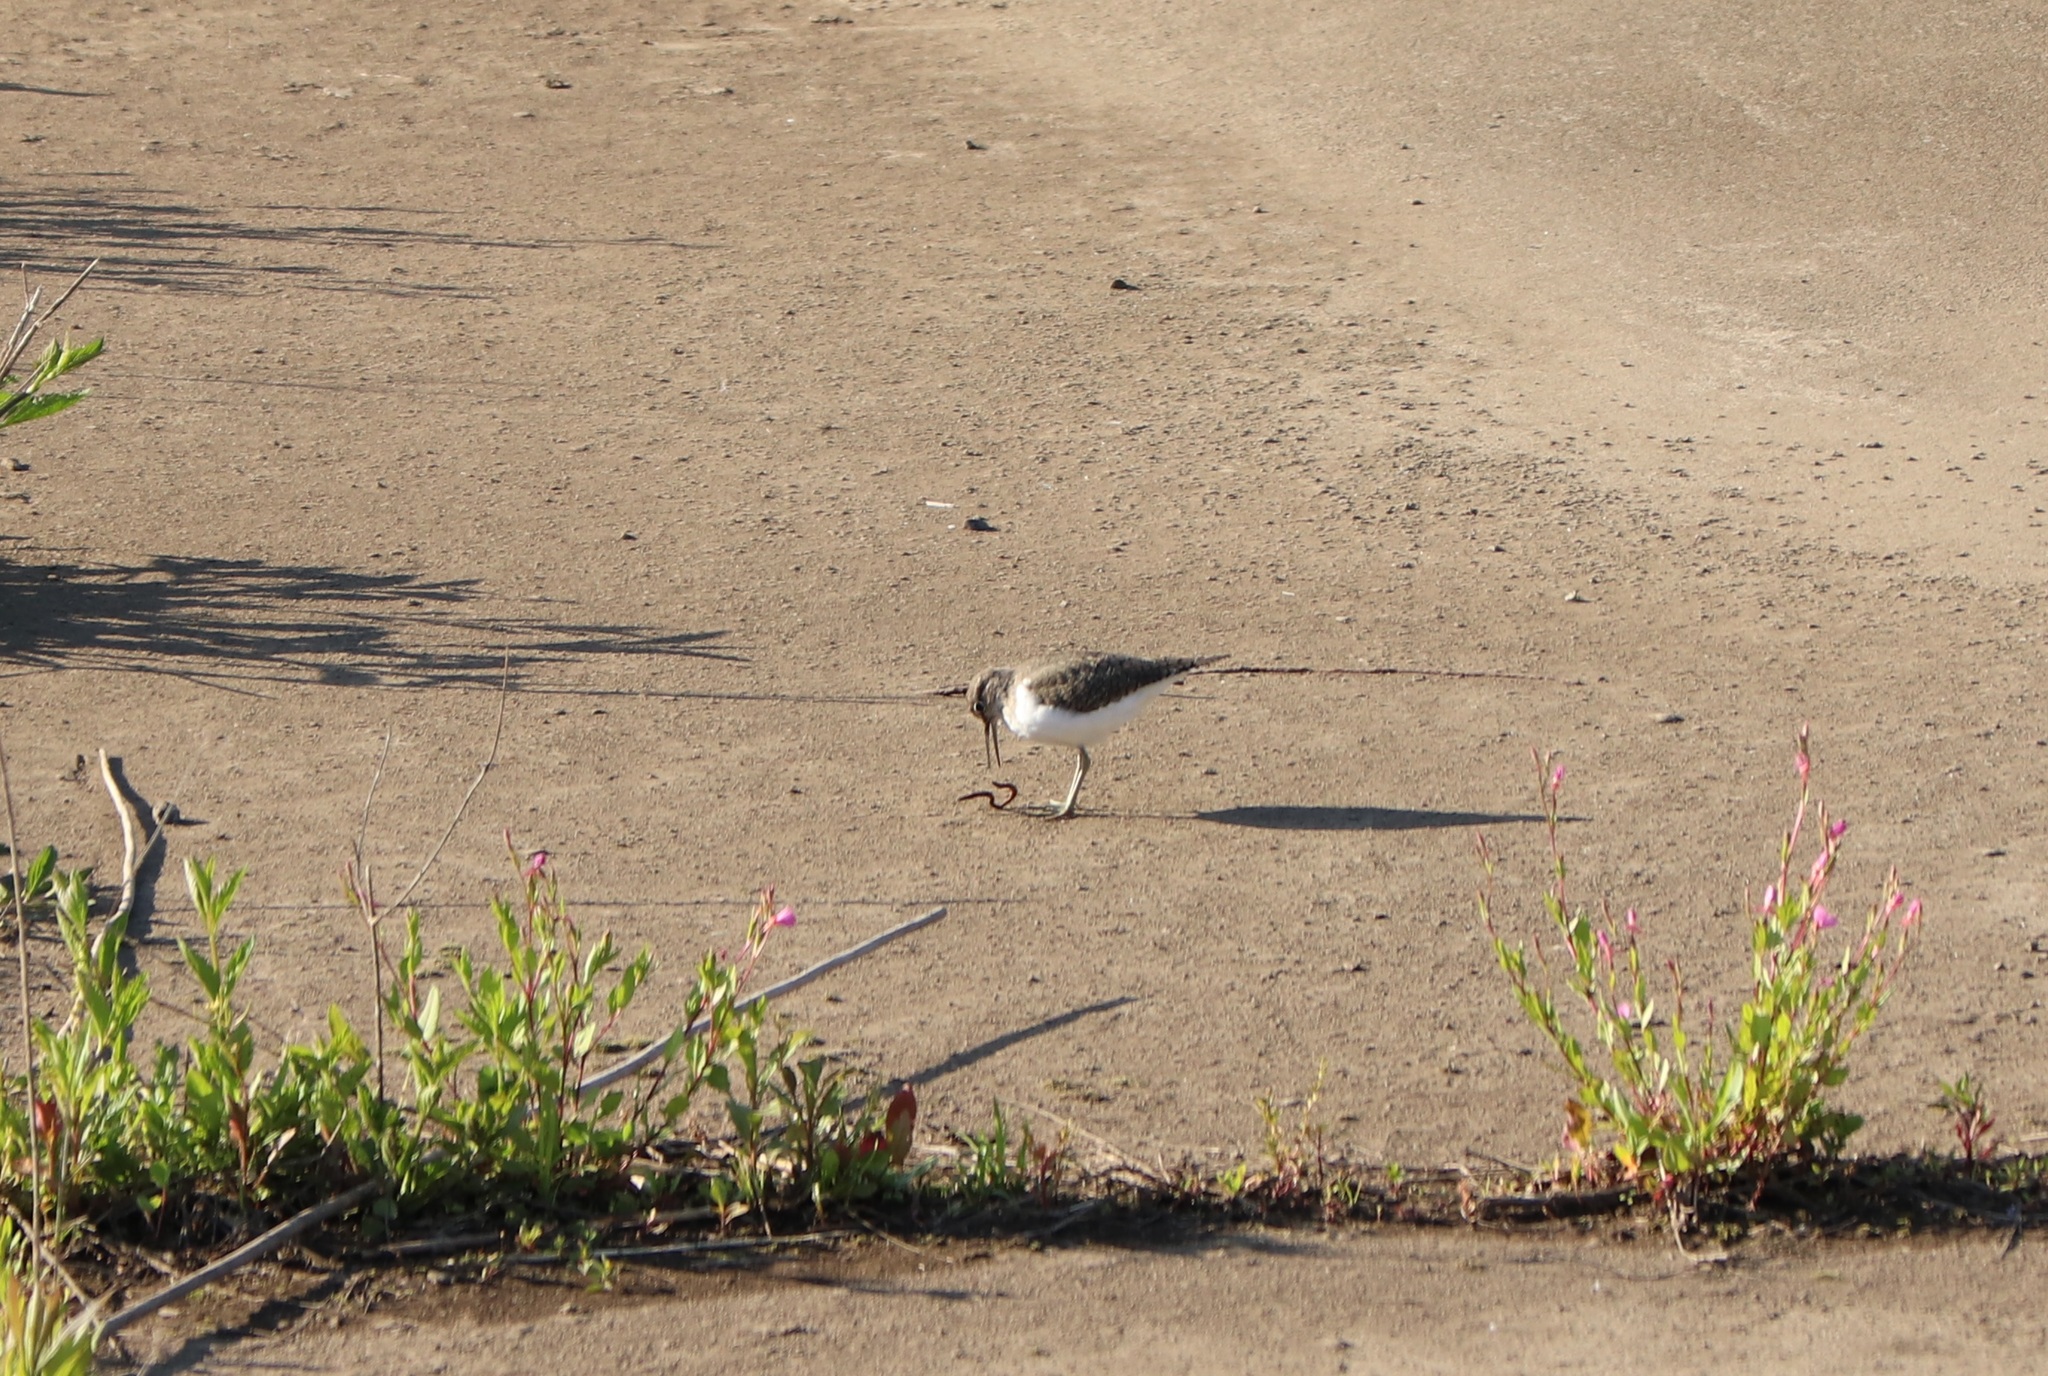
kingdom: Animalia
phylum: Chordata
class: Aves
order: Charadriiformes
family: Scolopacidae
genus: Actitis
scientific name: Actitis hypoleucos
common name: Common sandpiper
